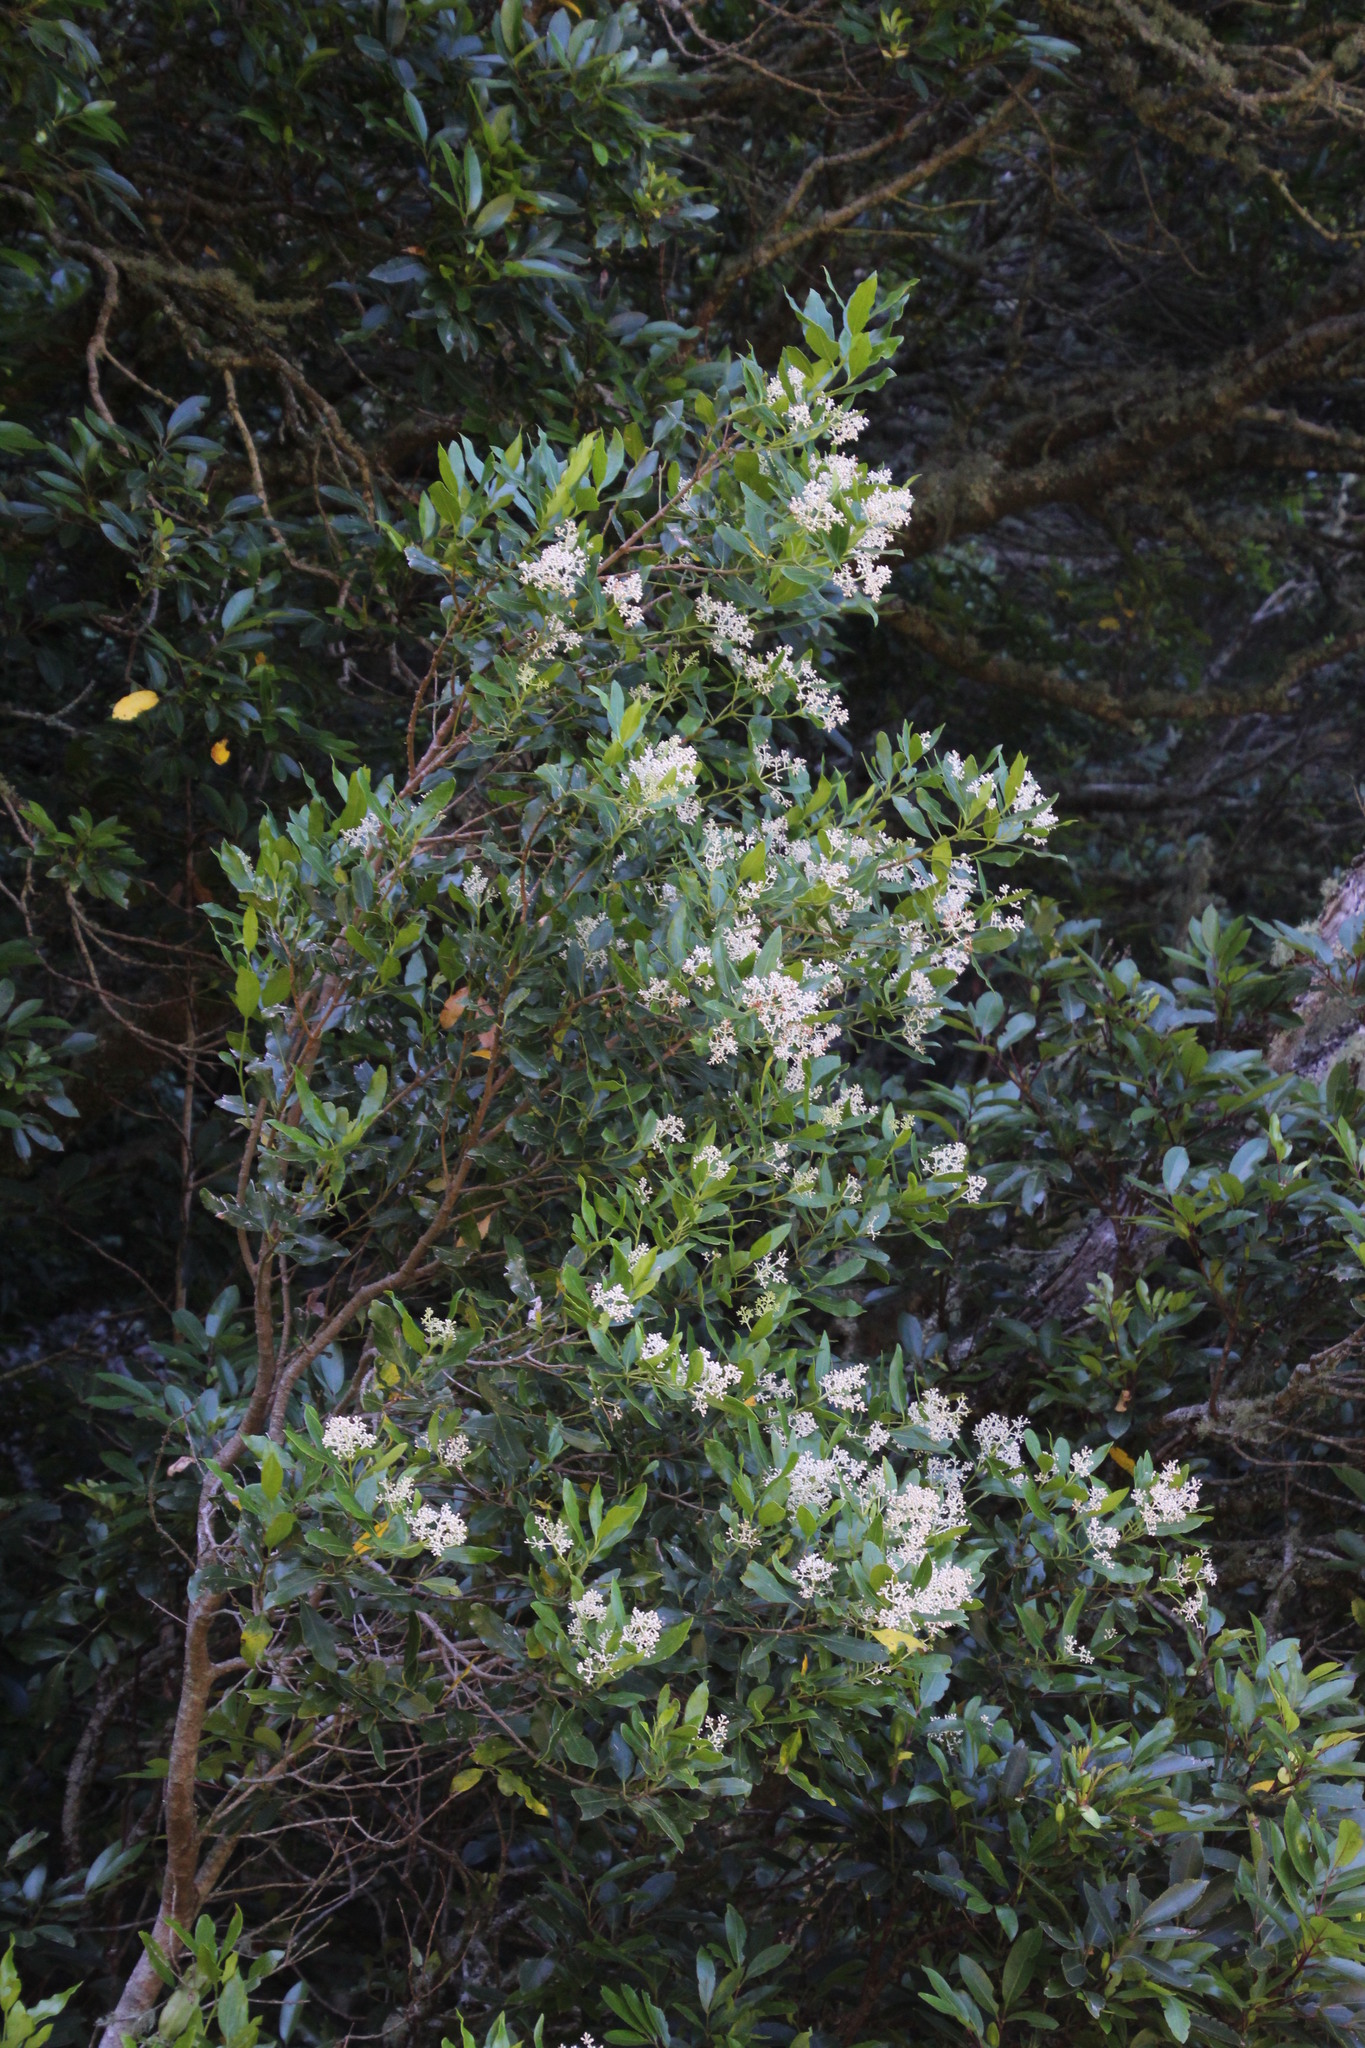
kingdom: Plantae
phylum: Tracheophyta
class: Magnoliopsida
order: Lamiales
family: Oleaceae
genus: Olea
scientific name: Olea capensis
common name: Black ironwood
